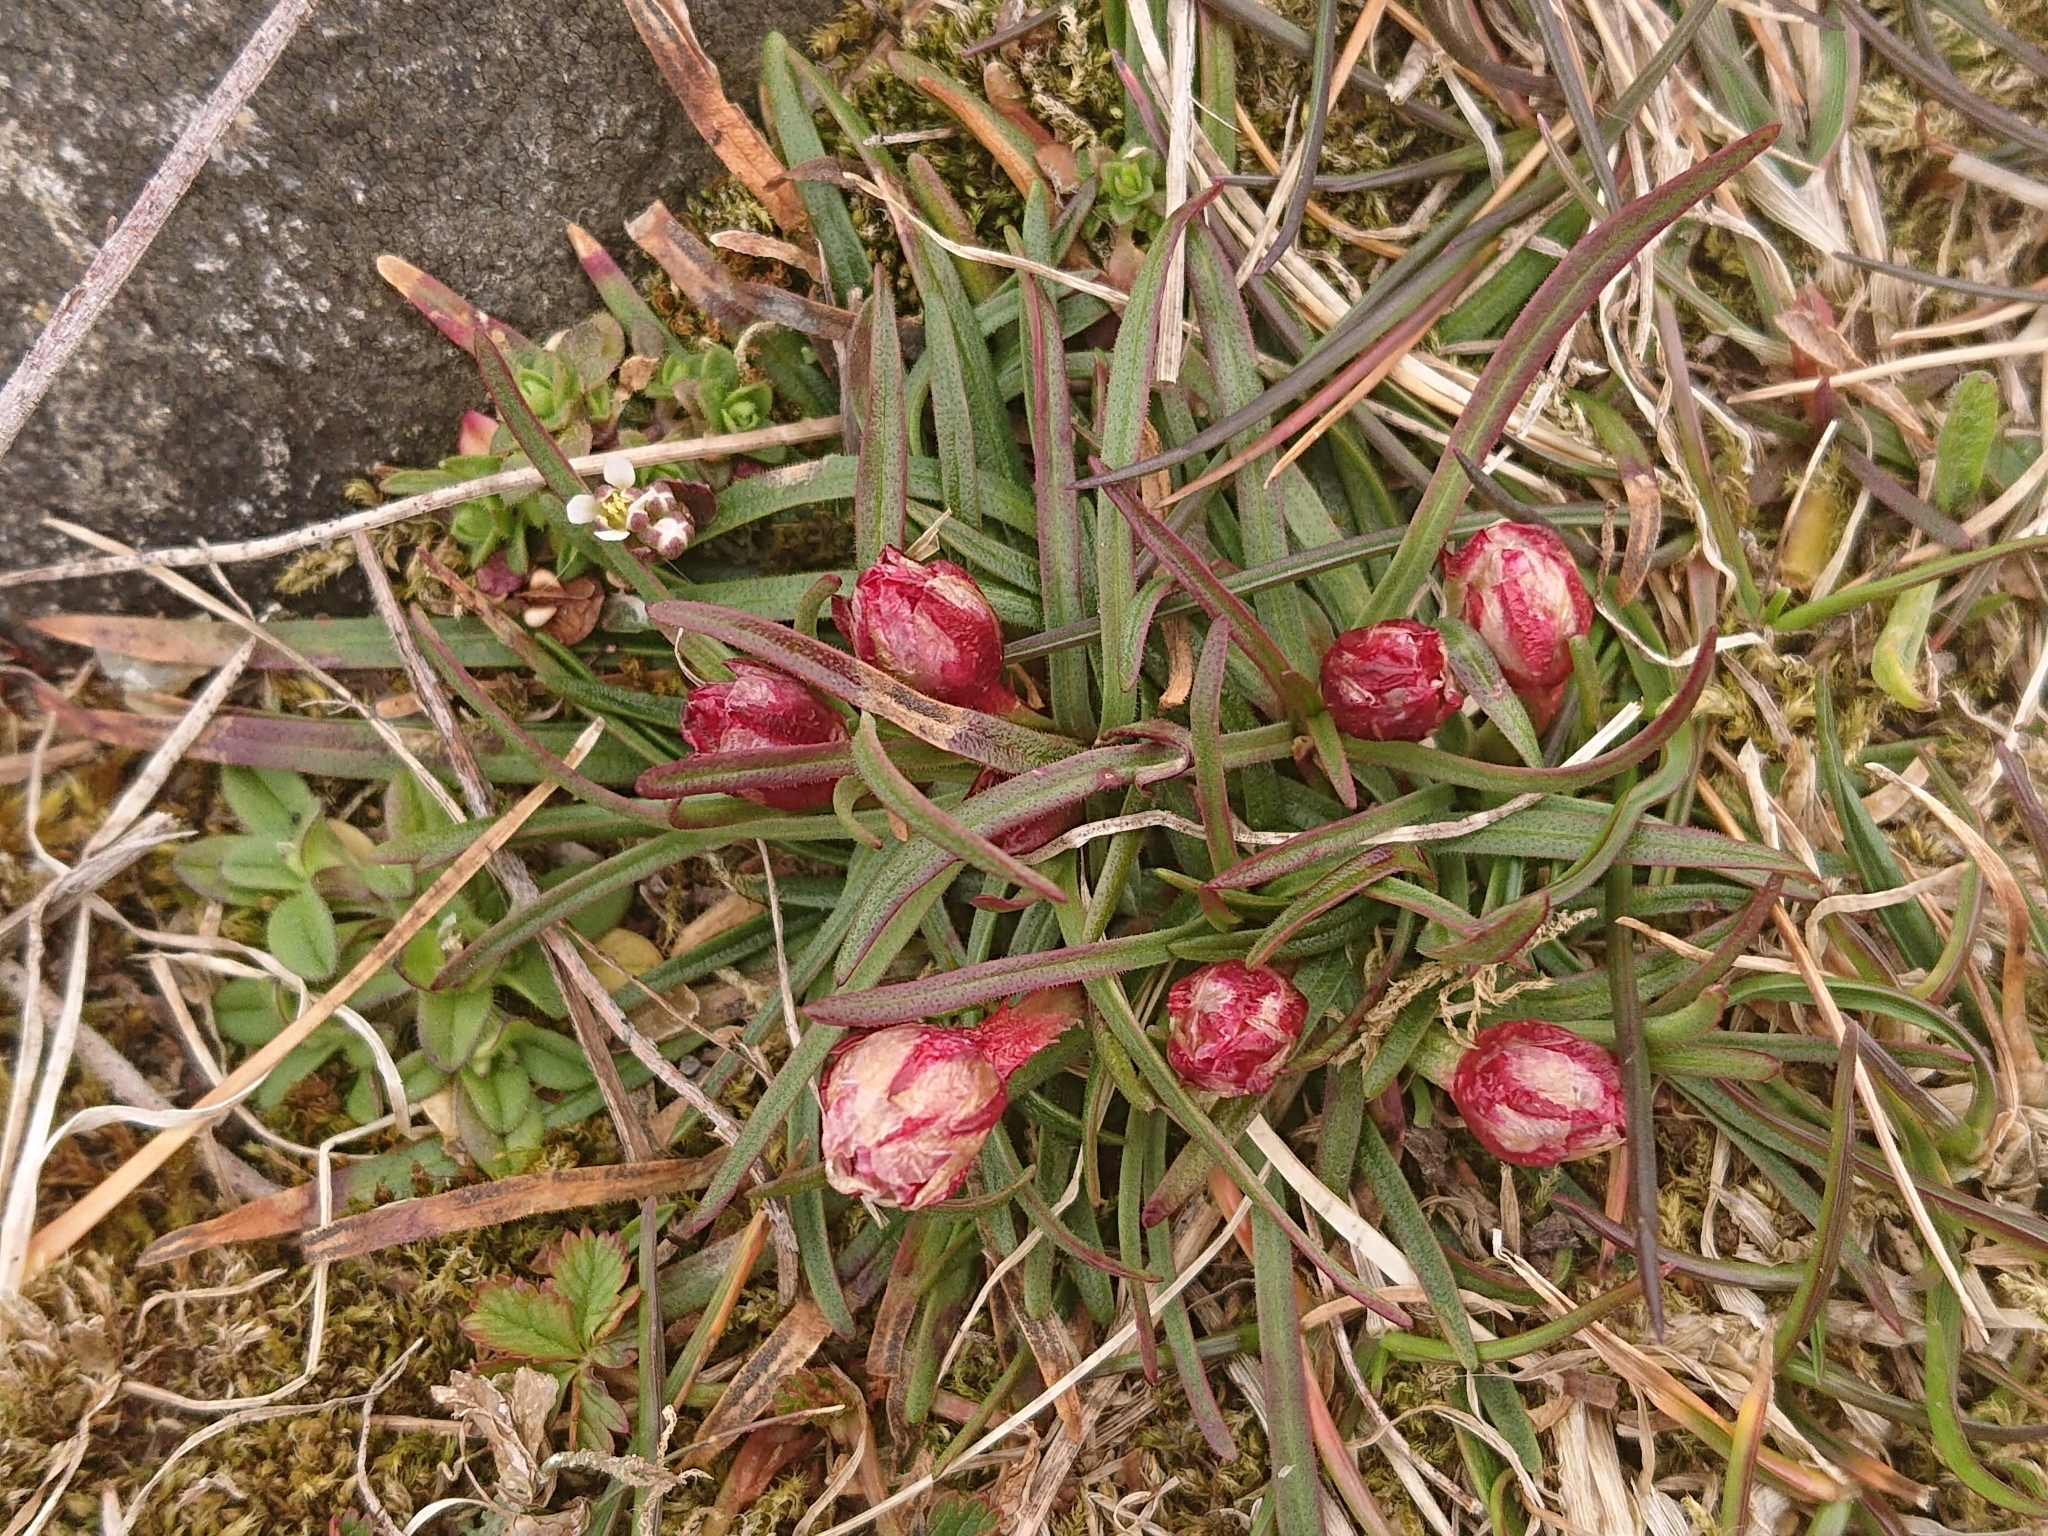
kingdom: Plantae
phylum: Tracheophyta
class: Magnoliopsida
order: Caryophyllales
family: Plumbaginaceae
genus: Armeria
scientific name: Armeria maritima
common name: Thrift
